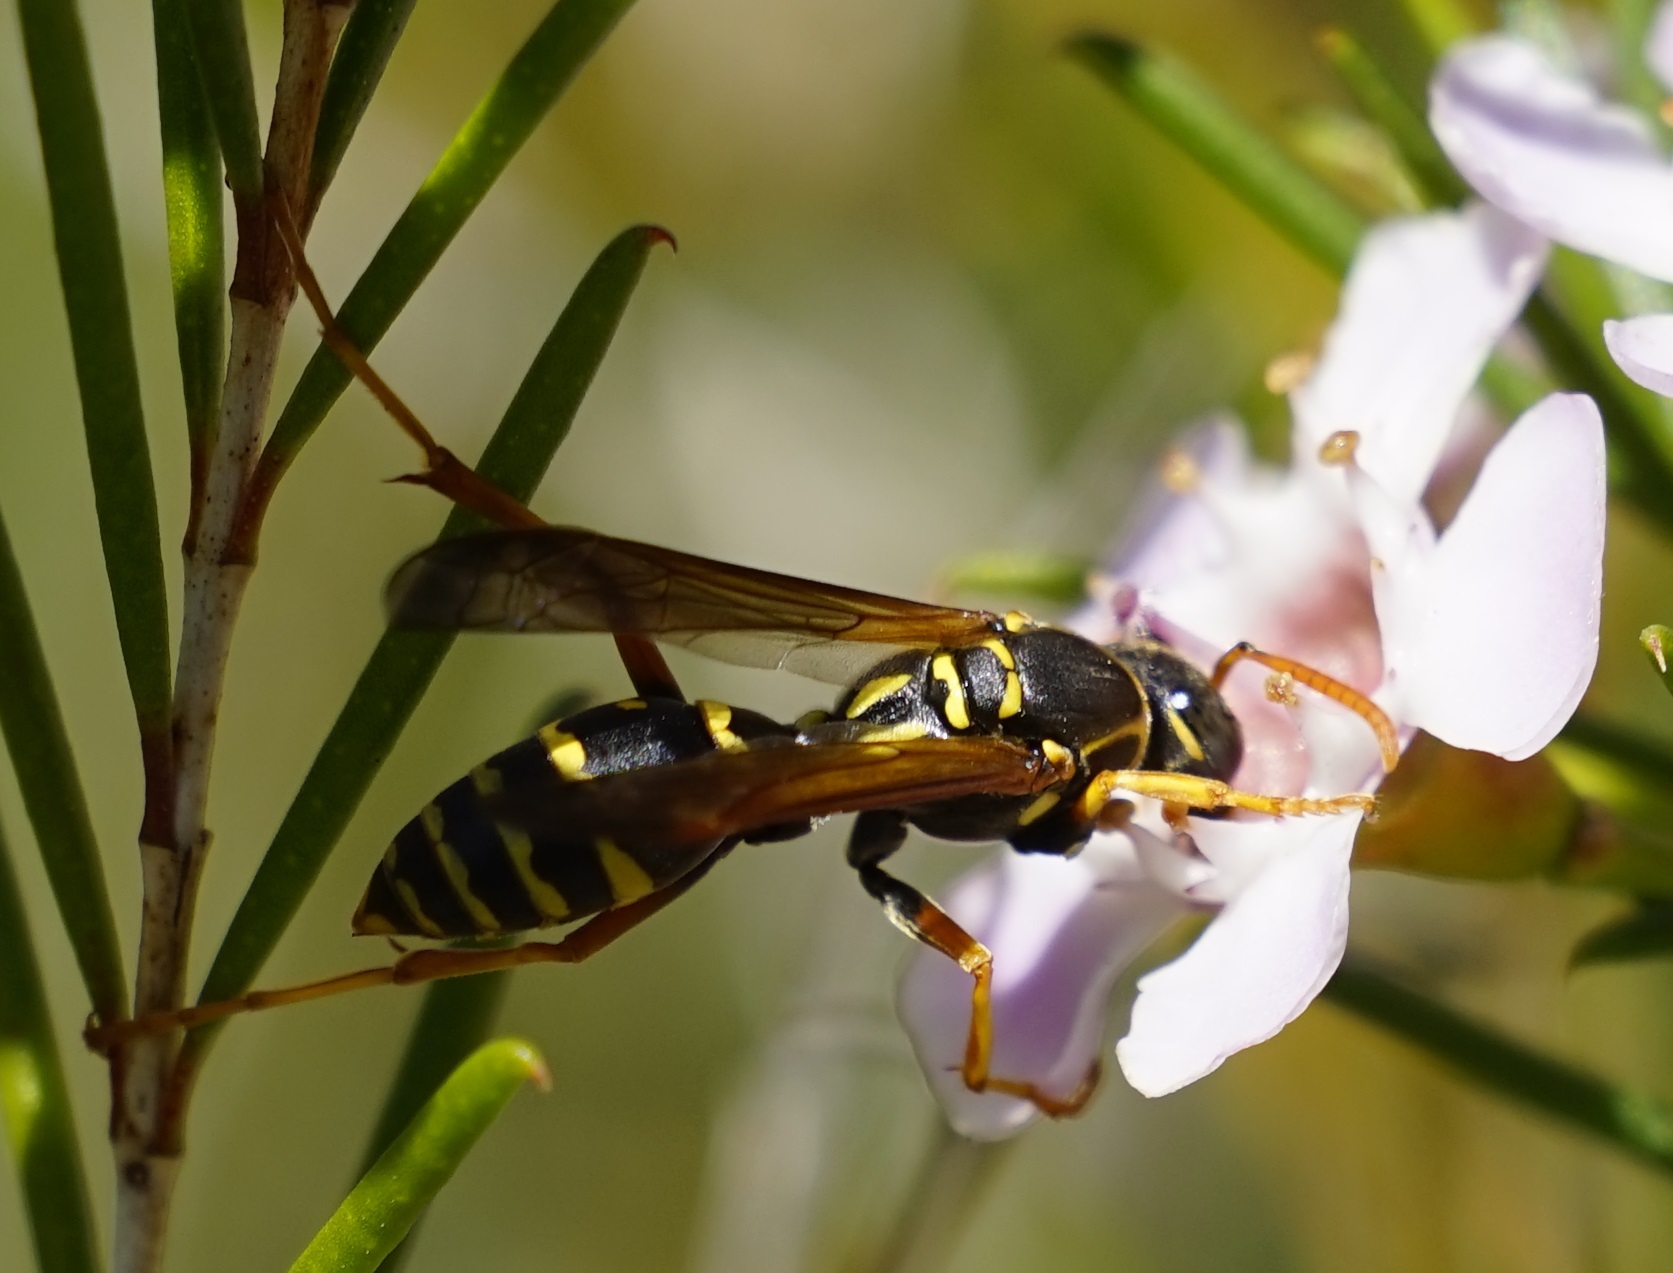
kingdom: Animalia
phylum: Arthropoda
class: Insecta
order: Hymenoptera
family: Eumenidae
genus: Polistes
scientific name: Polistes chinensis
